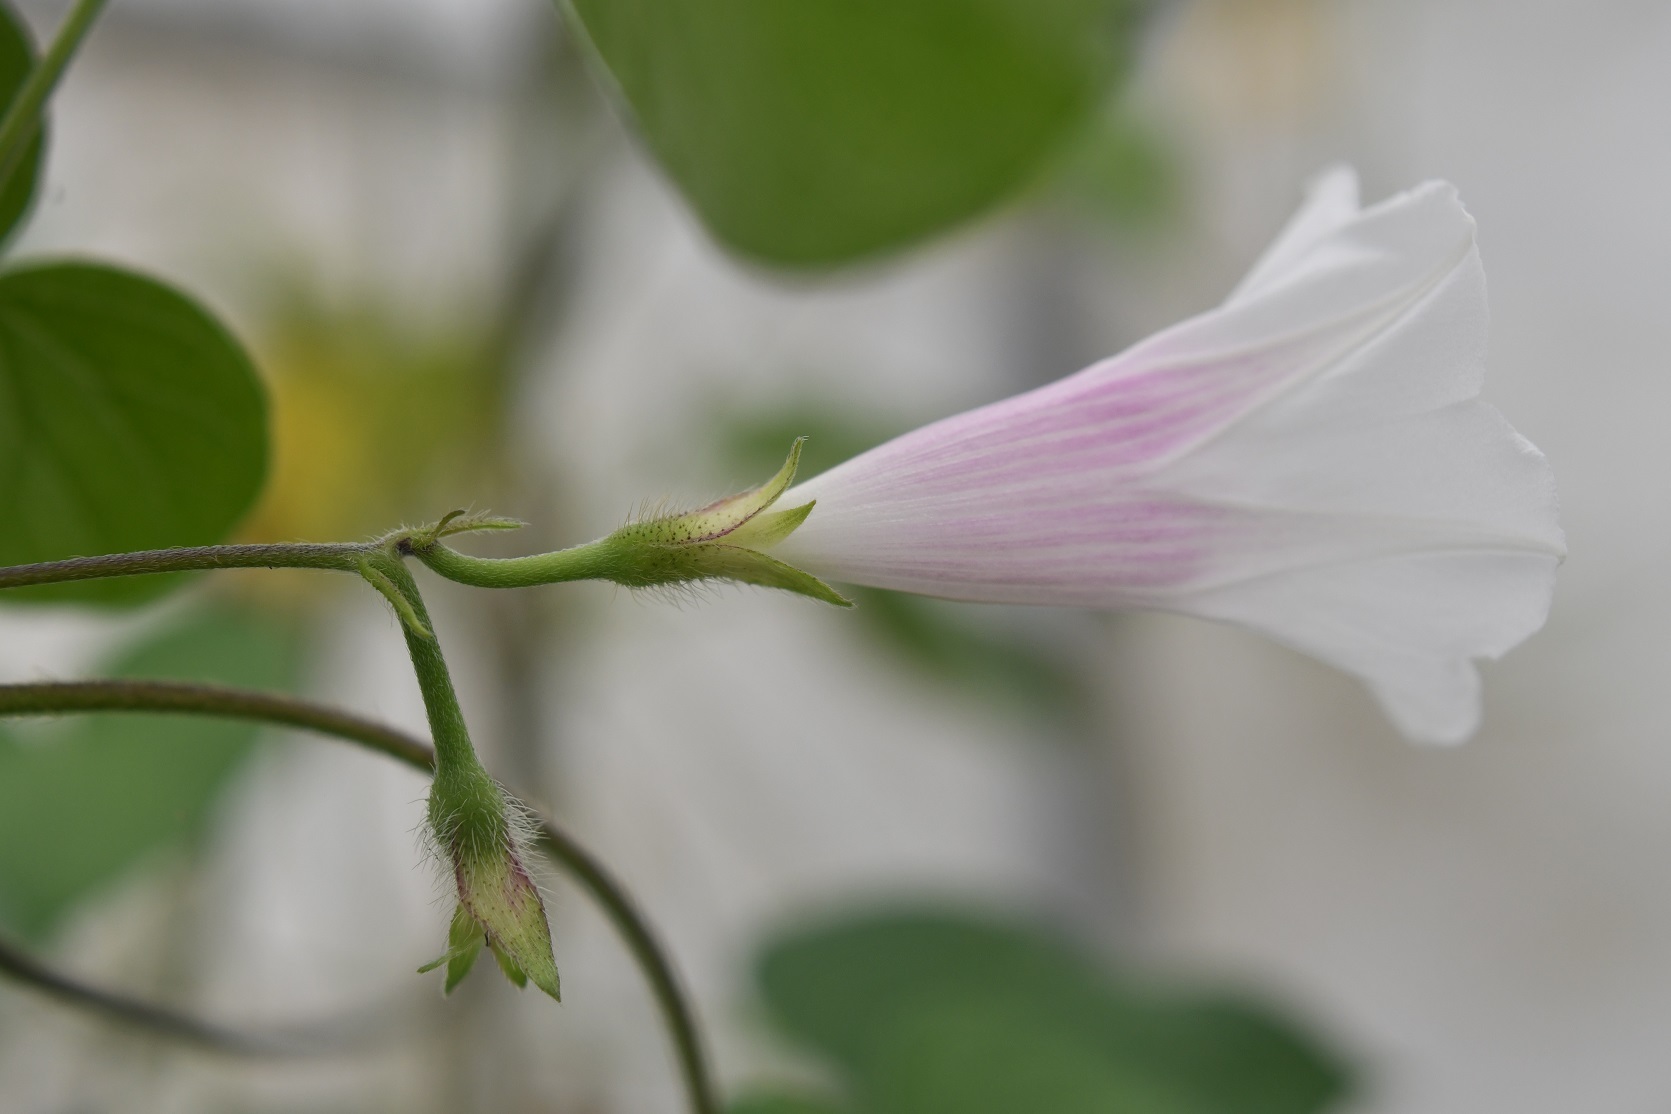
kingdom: Plantae
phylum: Tracheophyta
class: Magnoliopsida
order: Solanales
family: Convolvulaceae
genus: Ipomoea
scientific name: Ipomoea purpurea
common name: Common morning-glory
